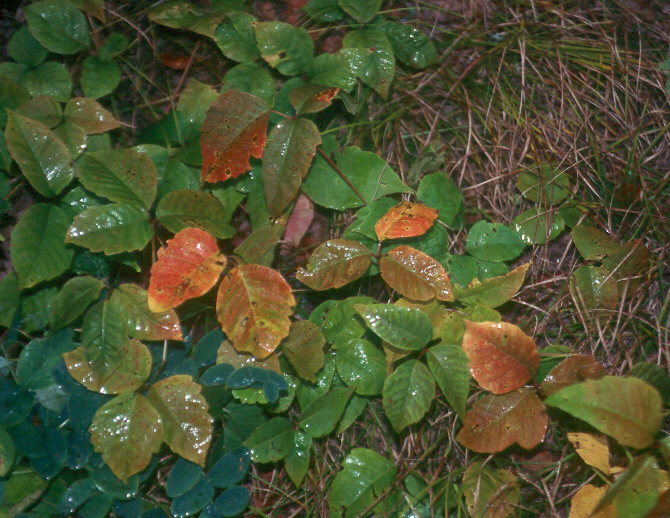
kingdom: Plantae
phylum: Tracheophyta
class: Magnoliopsida
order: Sapindales
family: Anacardiaceae
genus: Toxicodendron
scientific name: Toxicodendron rydbergii
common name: Rydberg's poison-ivy
